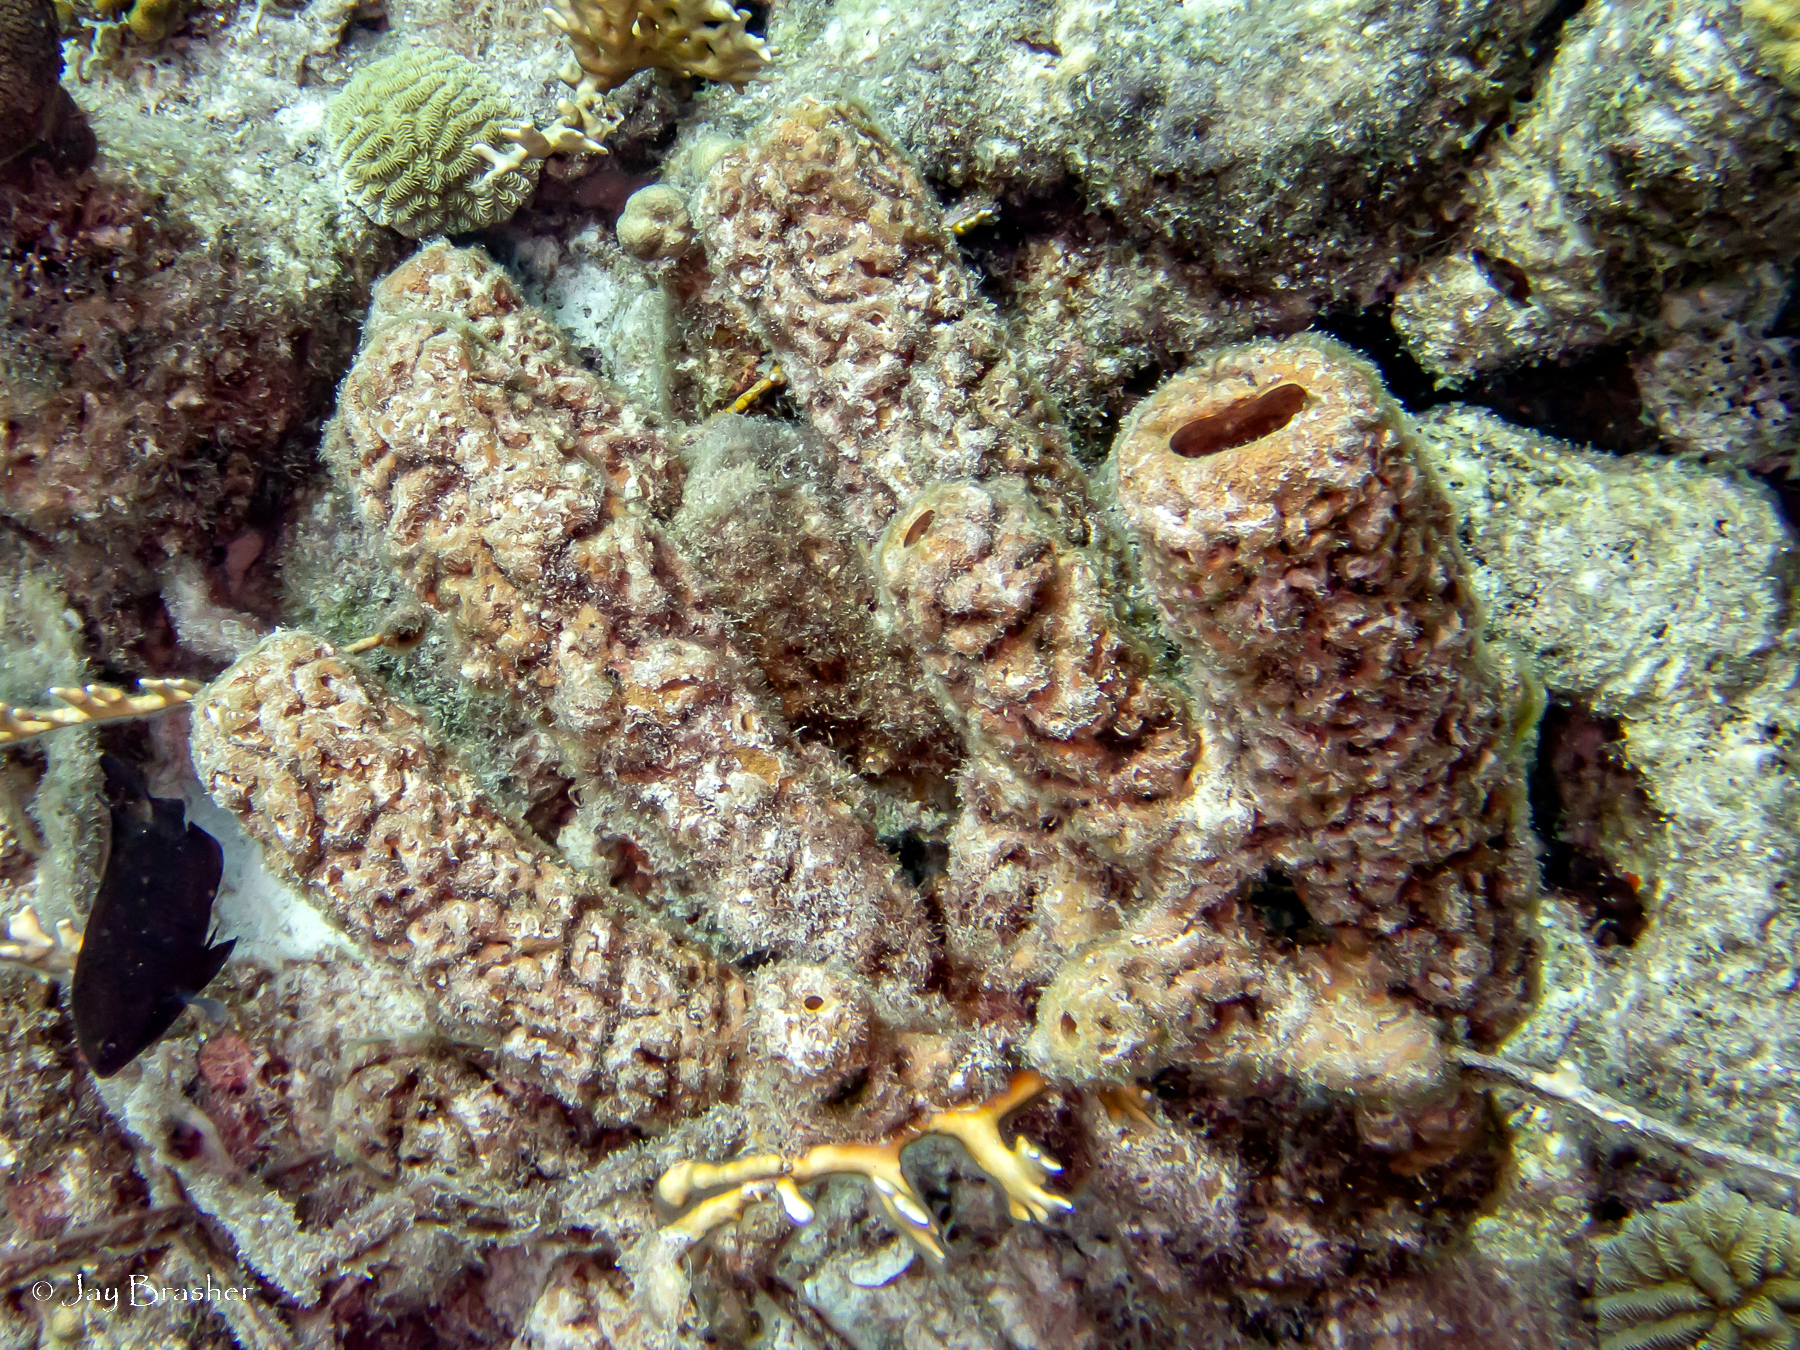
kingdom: Animalia
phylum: Cnidaria
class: Hydrozoa
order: Anthoathecata
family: Milleporidae
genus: Millepora
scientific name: Millepora alcicornis
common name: Branching fire coral
